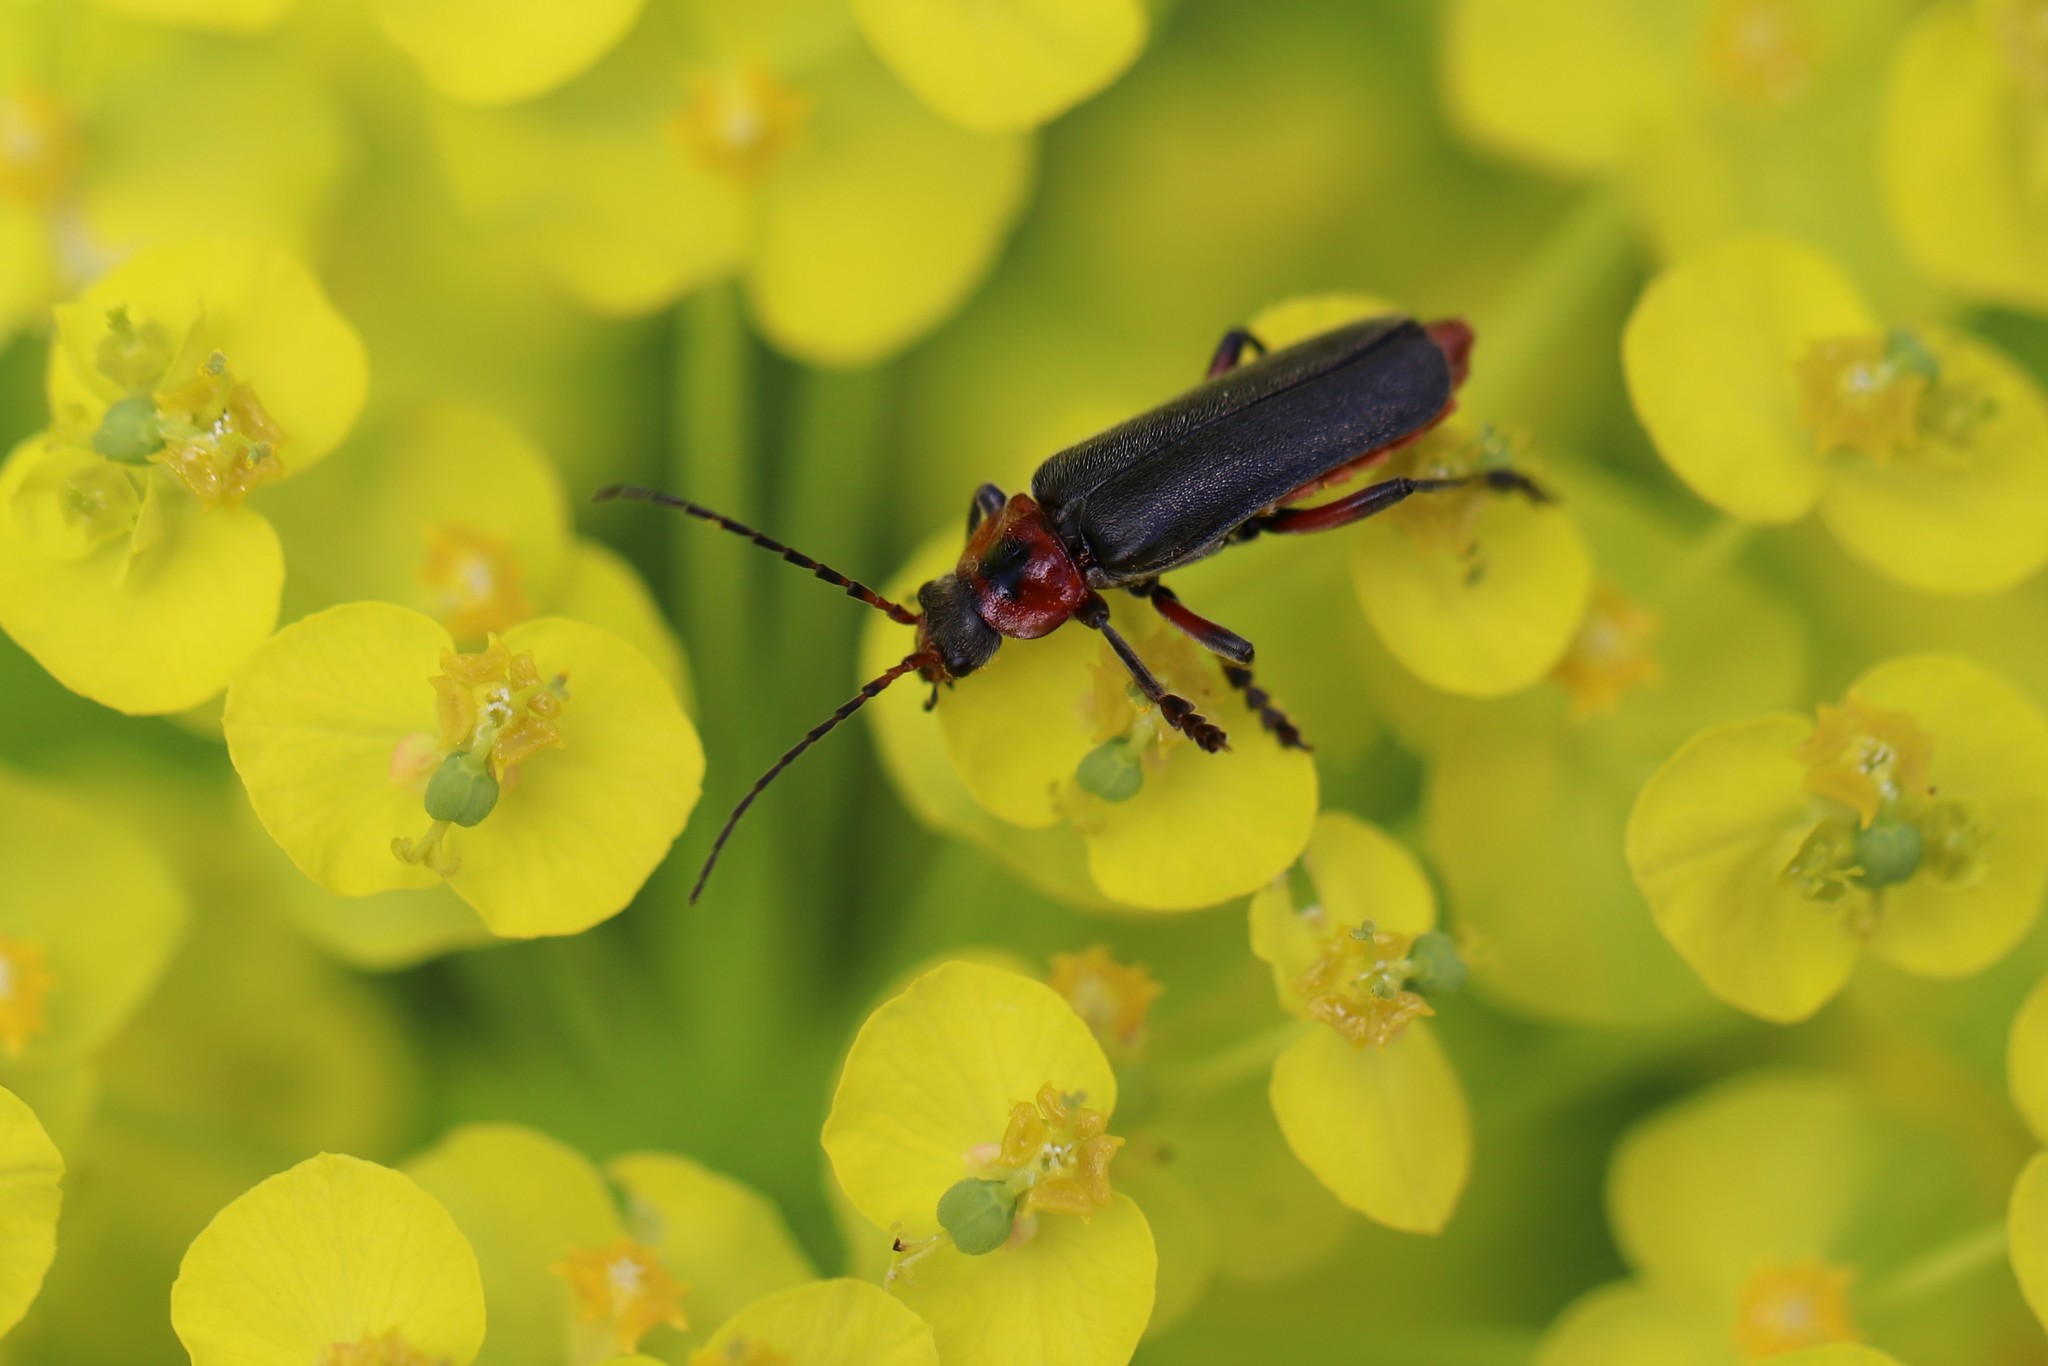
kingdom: Animalia
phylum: Arthropoda
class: Insecta
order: Coleoptera
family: Cantharidae
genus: Cantharis
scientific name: Cantharis rustica
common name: Soldier beetle
